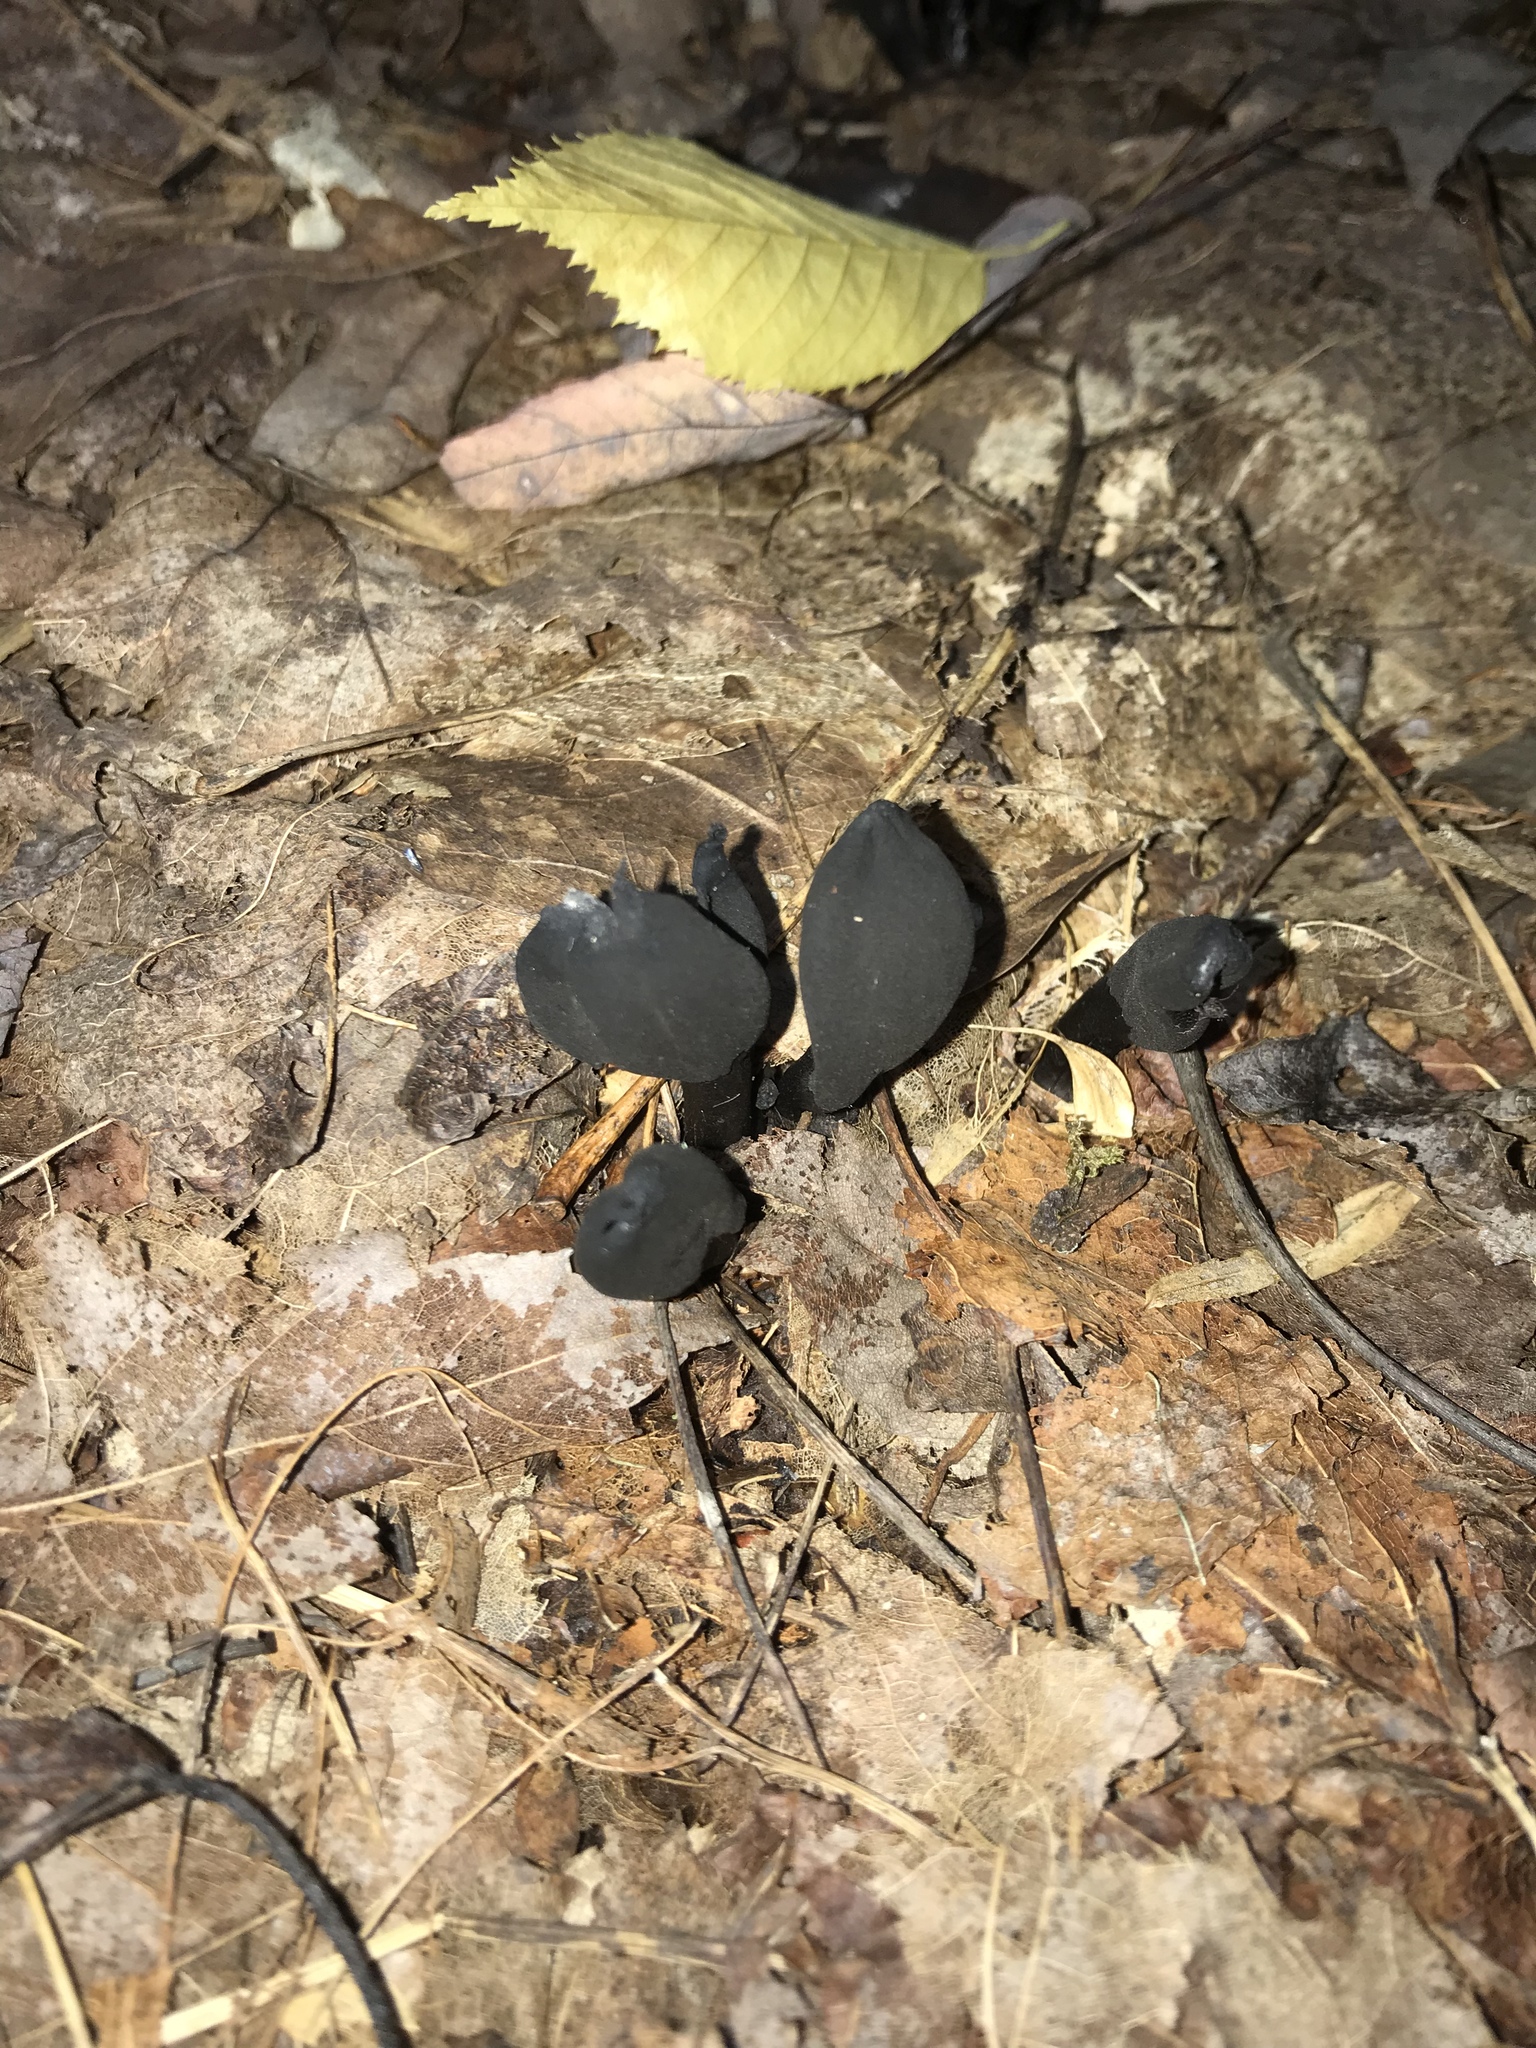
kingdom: Fungi
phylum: Ascomycota
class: Sordariomycetes
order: Xylariales
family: Xylariaceae
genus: Xylaria
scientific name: Xylaria polymorpha
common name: Dead man's fingers
